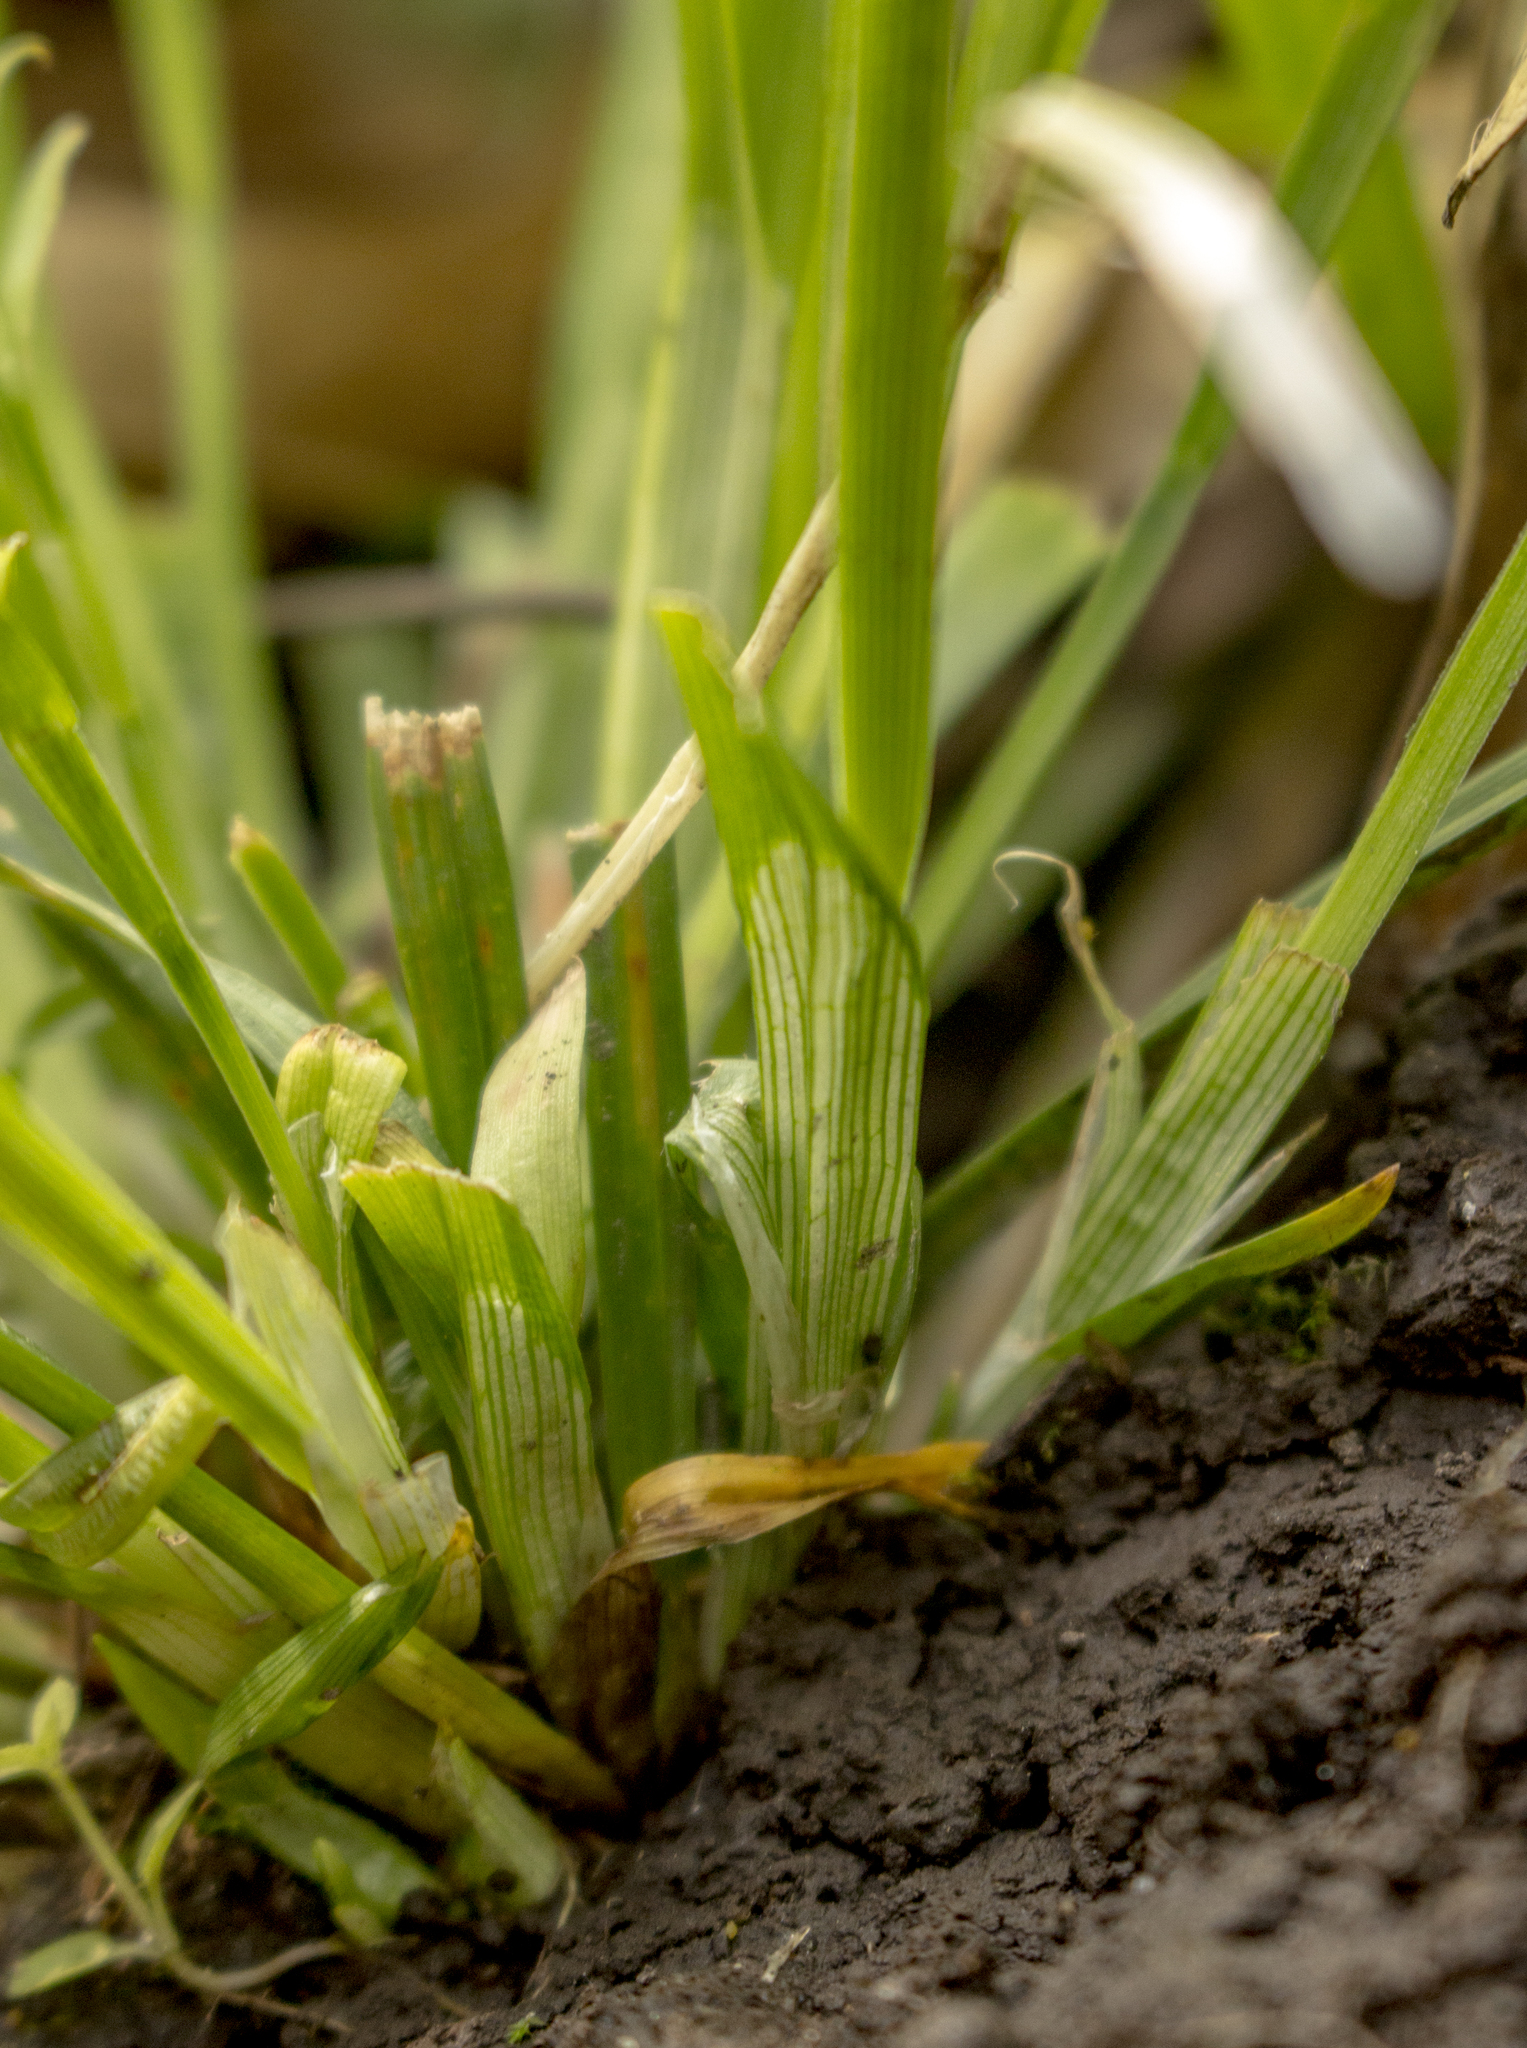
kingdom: Plantae
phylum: Tracheophyta
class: Liliopsida
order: Poales
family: Cyperaceae
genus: Carex
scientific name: Carex blanda
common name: Bland sedge
